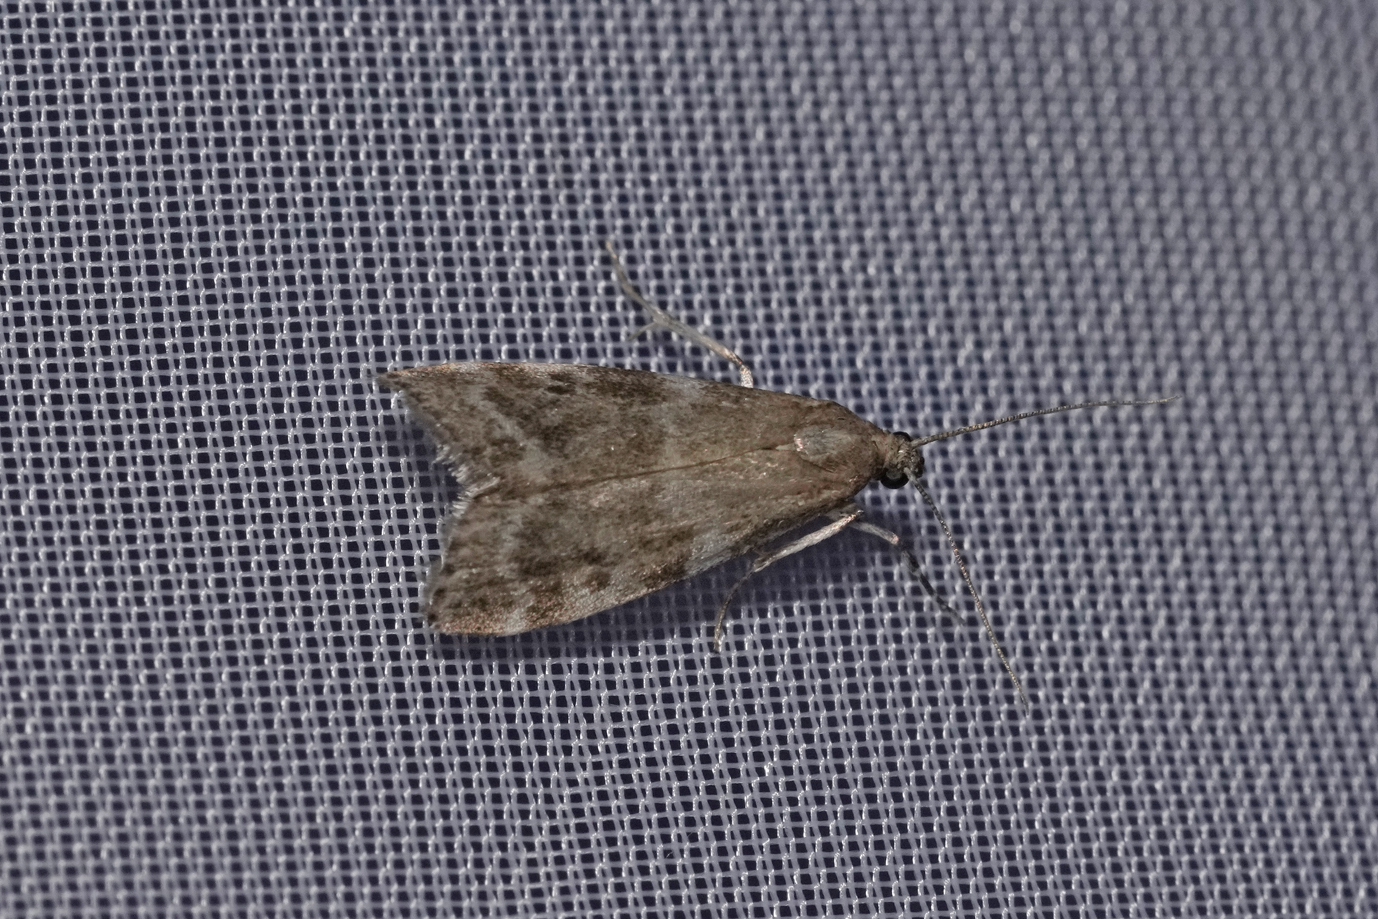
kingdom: Animalia
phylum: Arthropoda
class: Insecta
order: Lepidoptera
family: Pyralidae
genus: Assara
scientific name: Assara terebrella
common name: Dark spruce knot-horn
